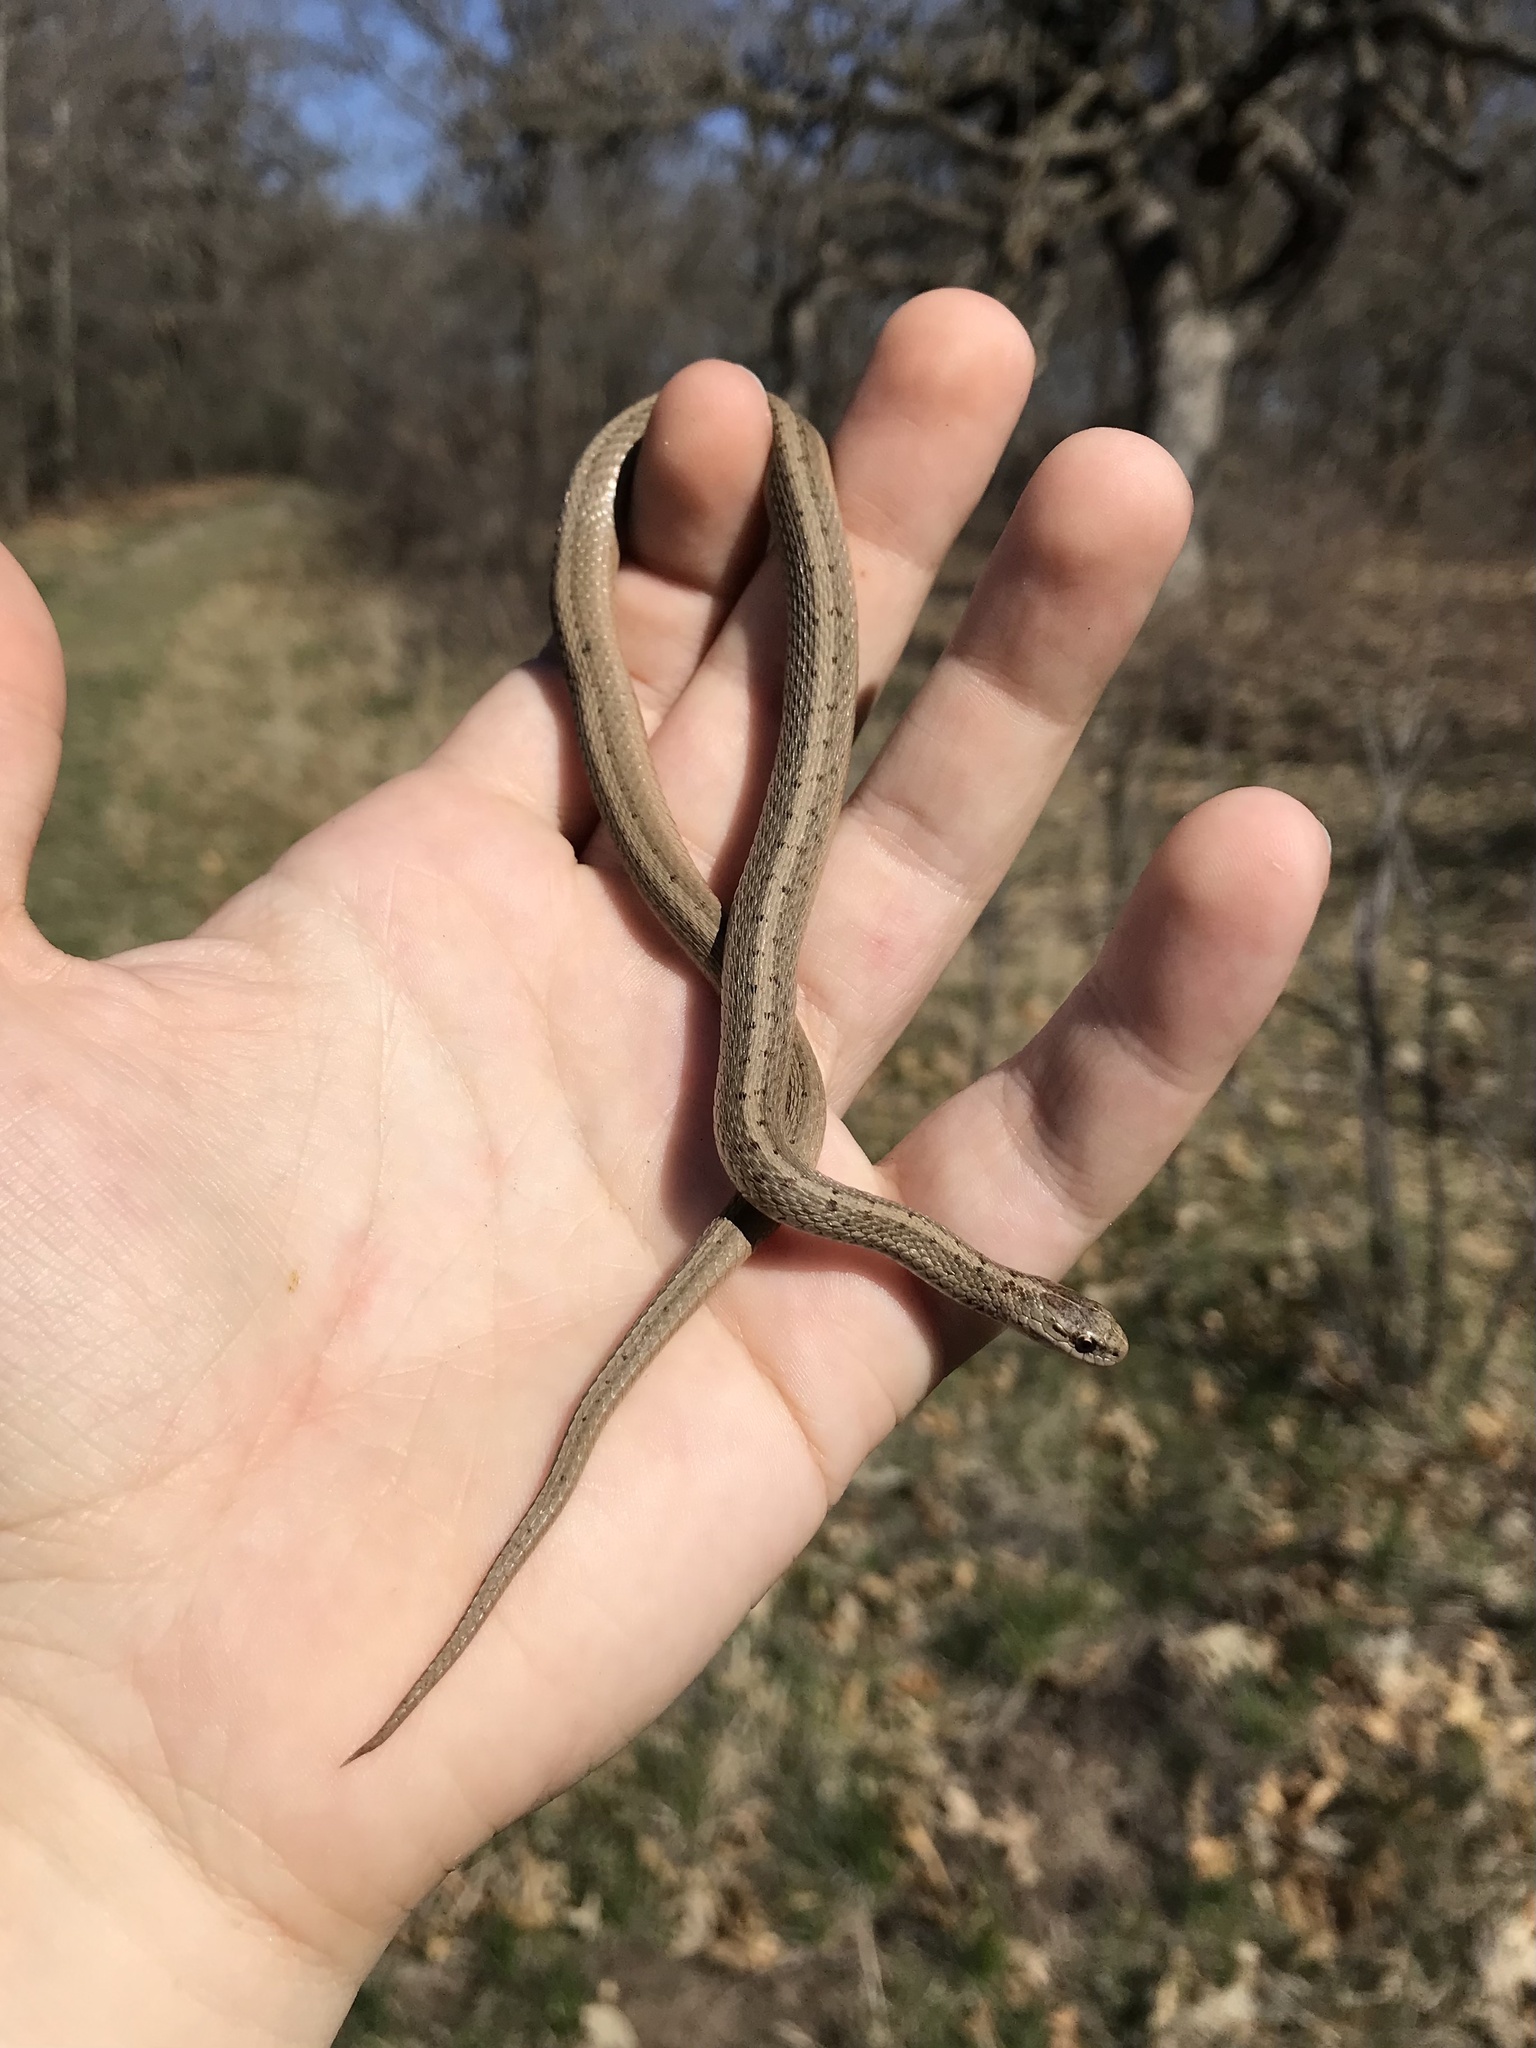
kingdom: Animalia
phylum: Chordata
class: Squamata
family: Colubridae
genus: Storeria
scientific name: Storeria dekayi
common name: (dekay’s) brown snake
